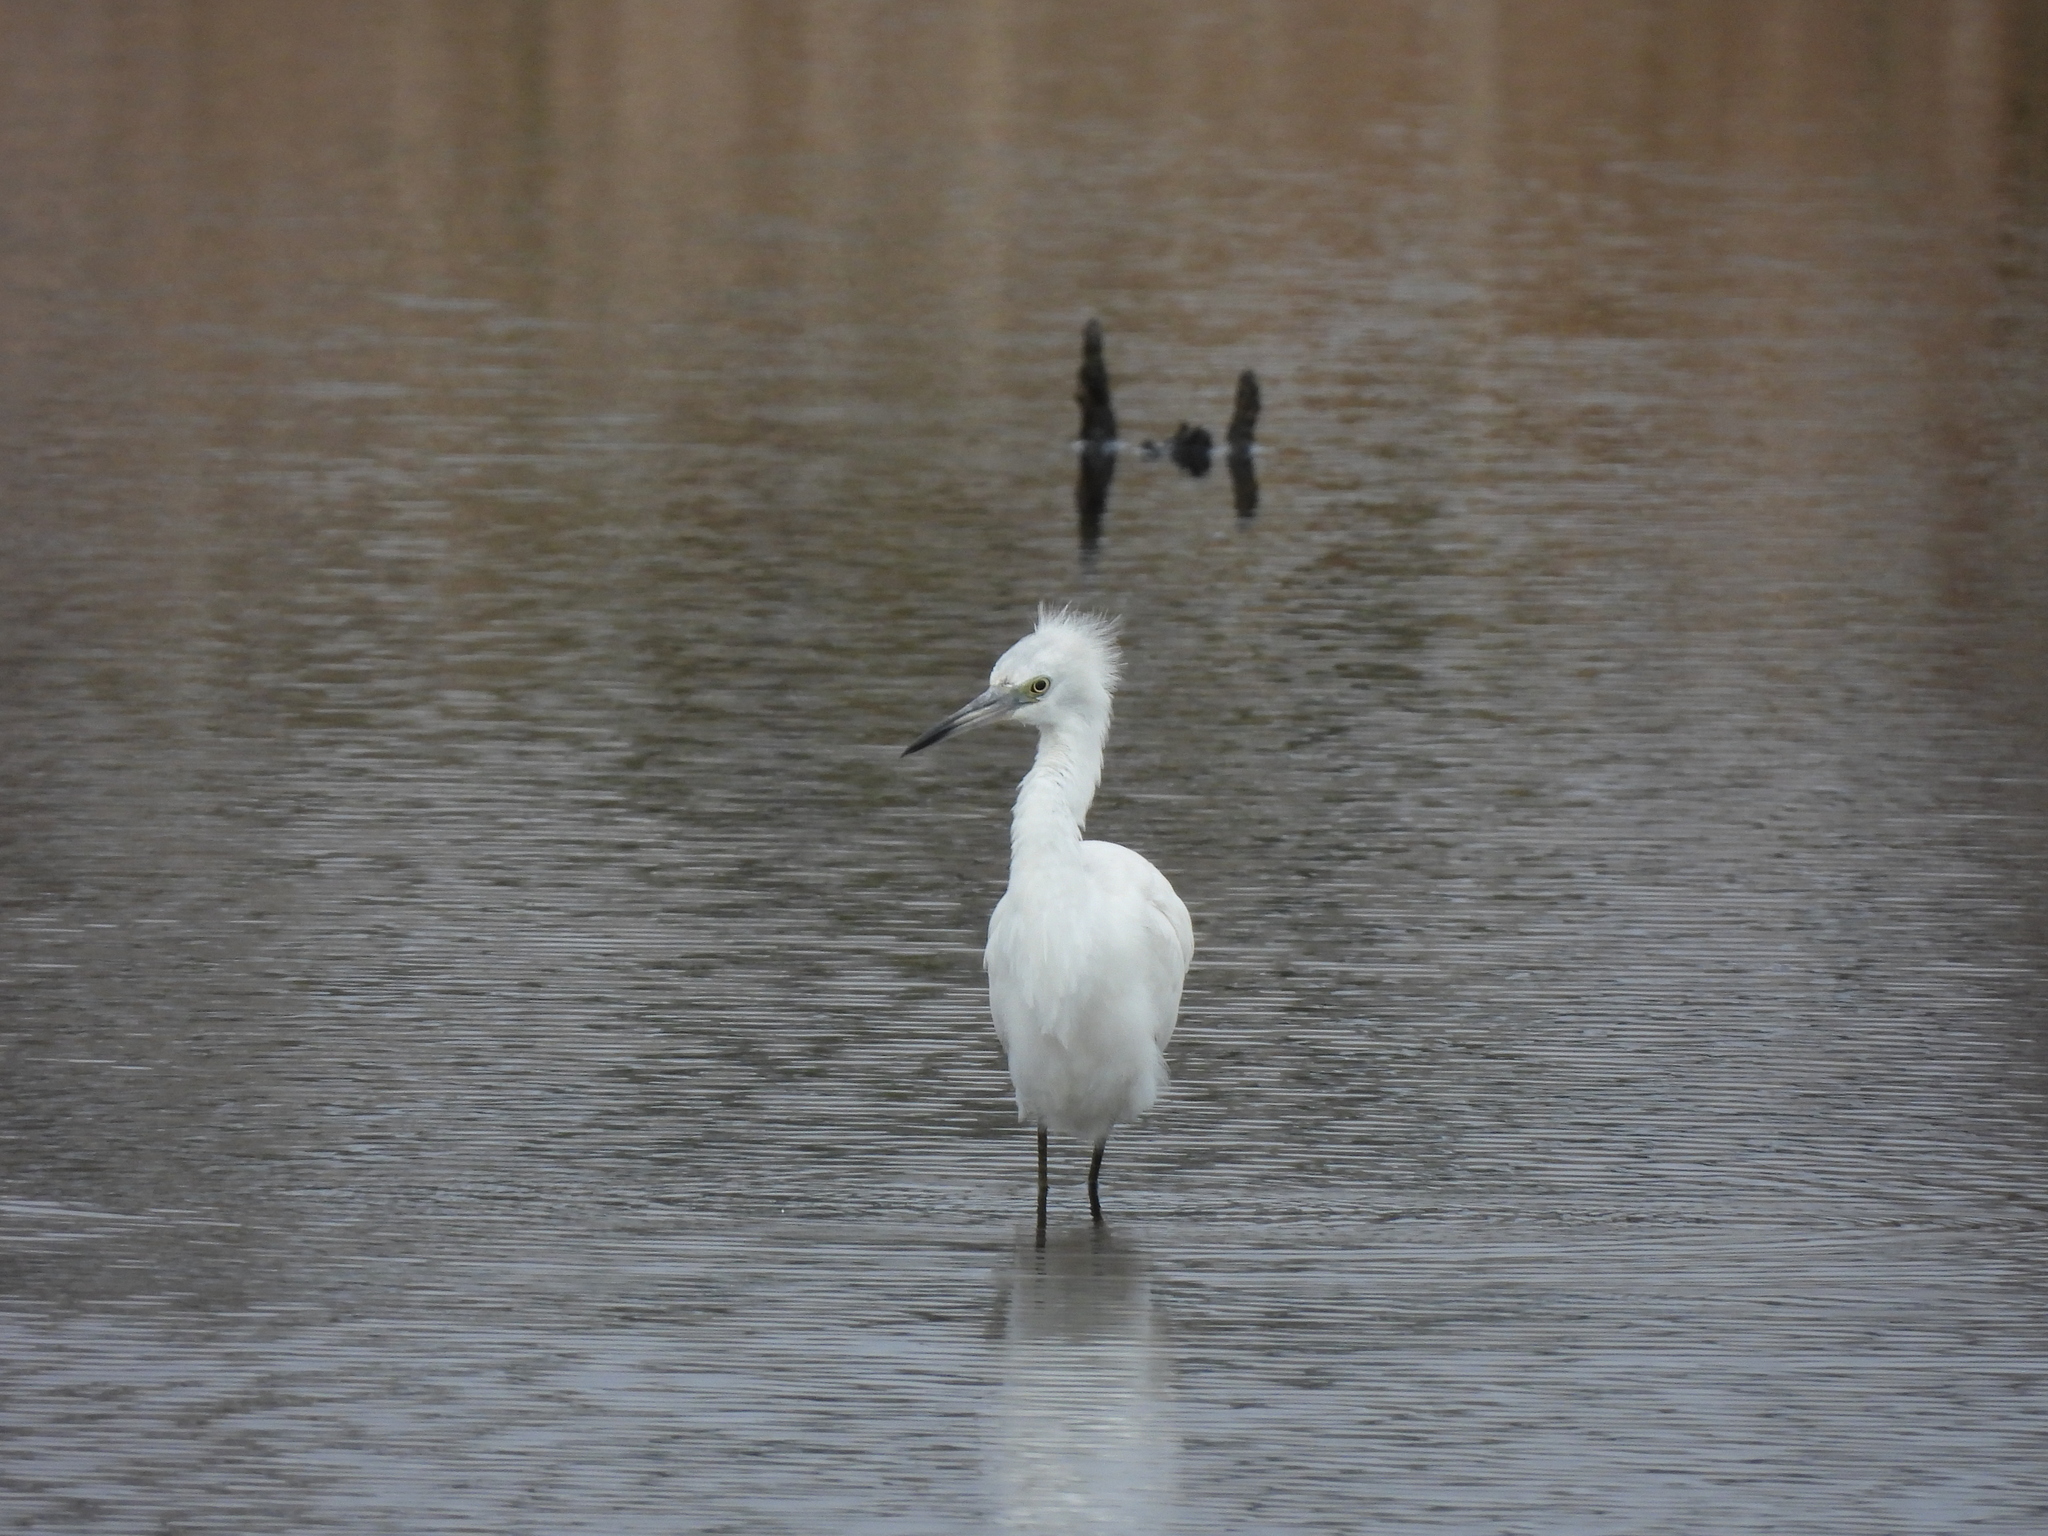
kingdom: Animalia
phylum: Chordata
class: Aves
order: Pelecaniformes
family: Ardeidae
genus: Egretta
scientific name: Egretta caerulea
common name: Little blue heron
